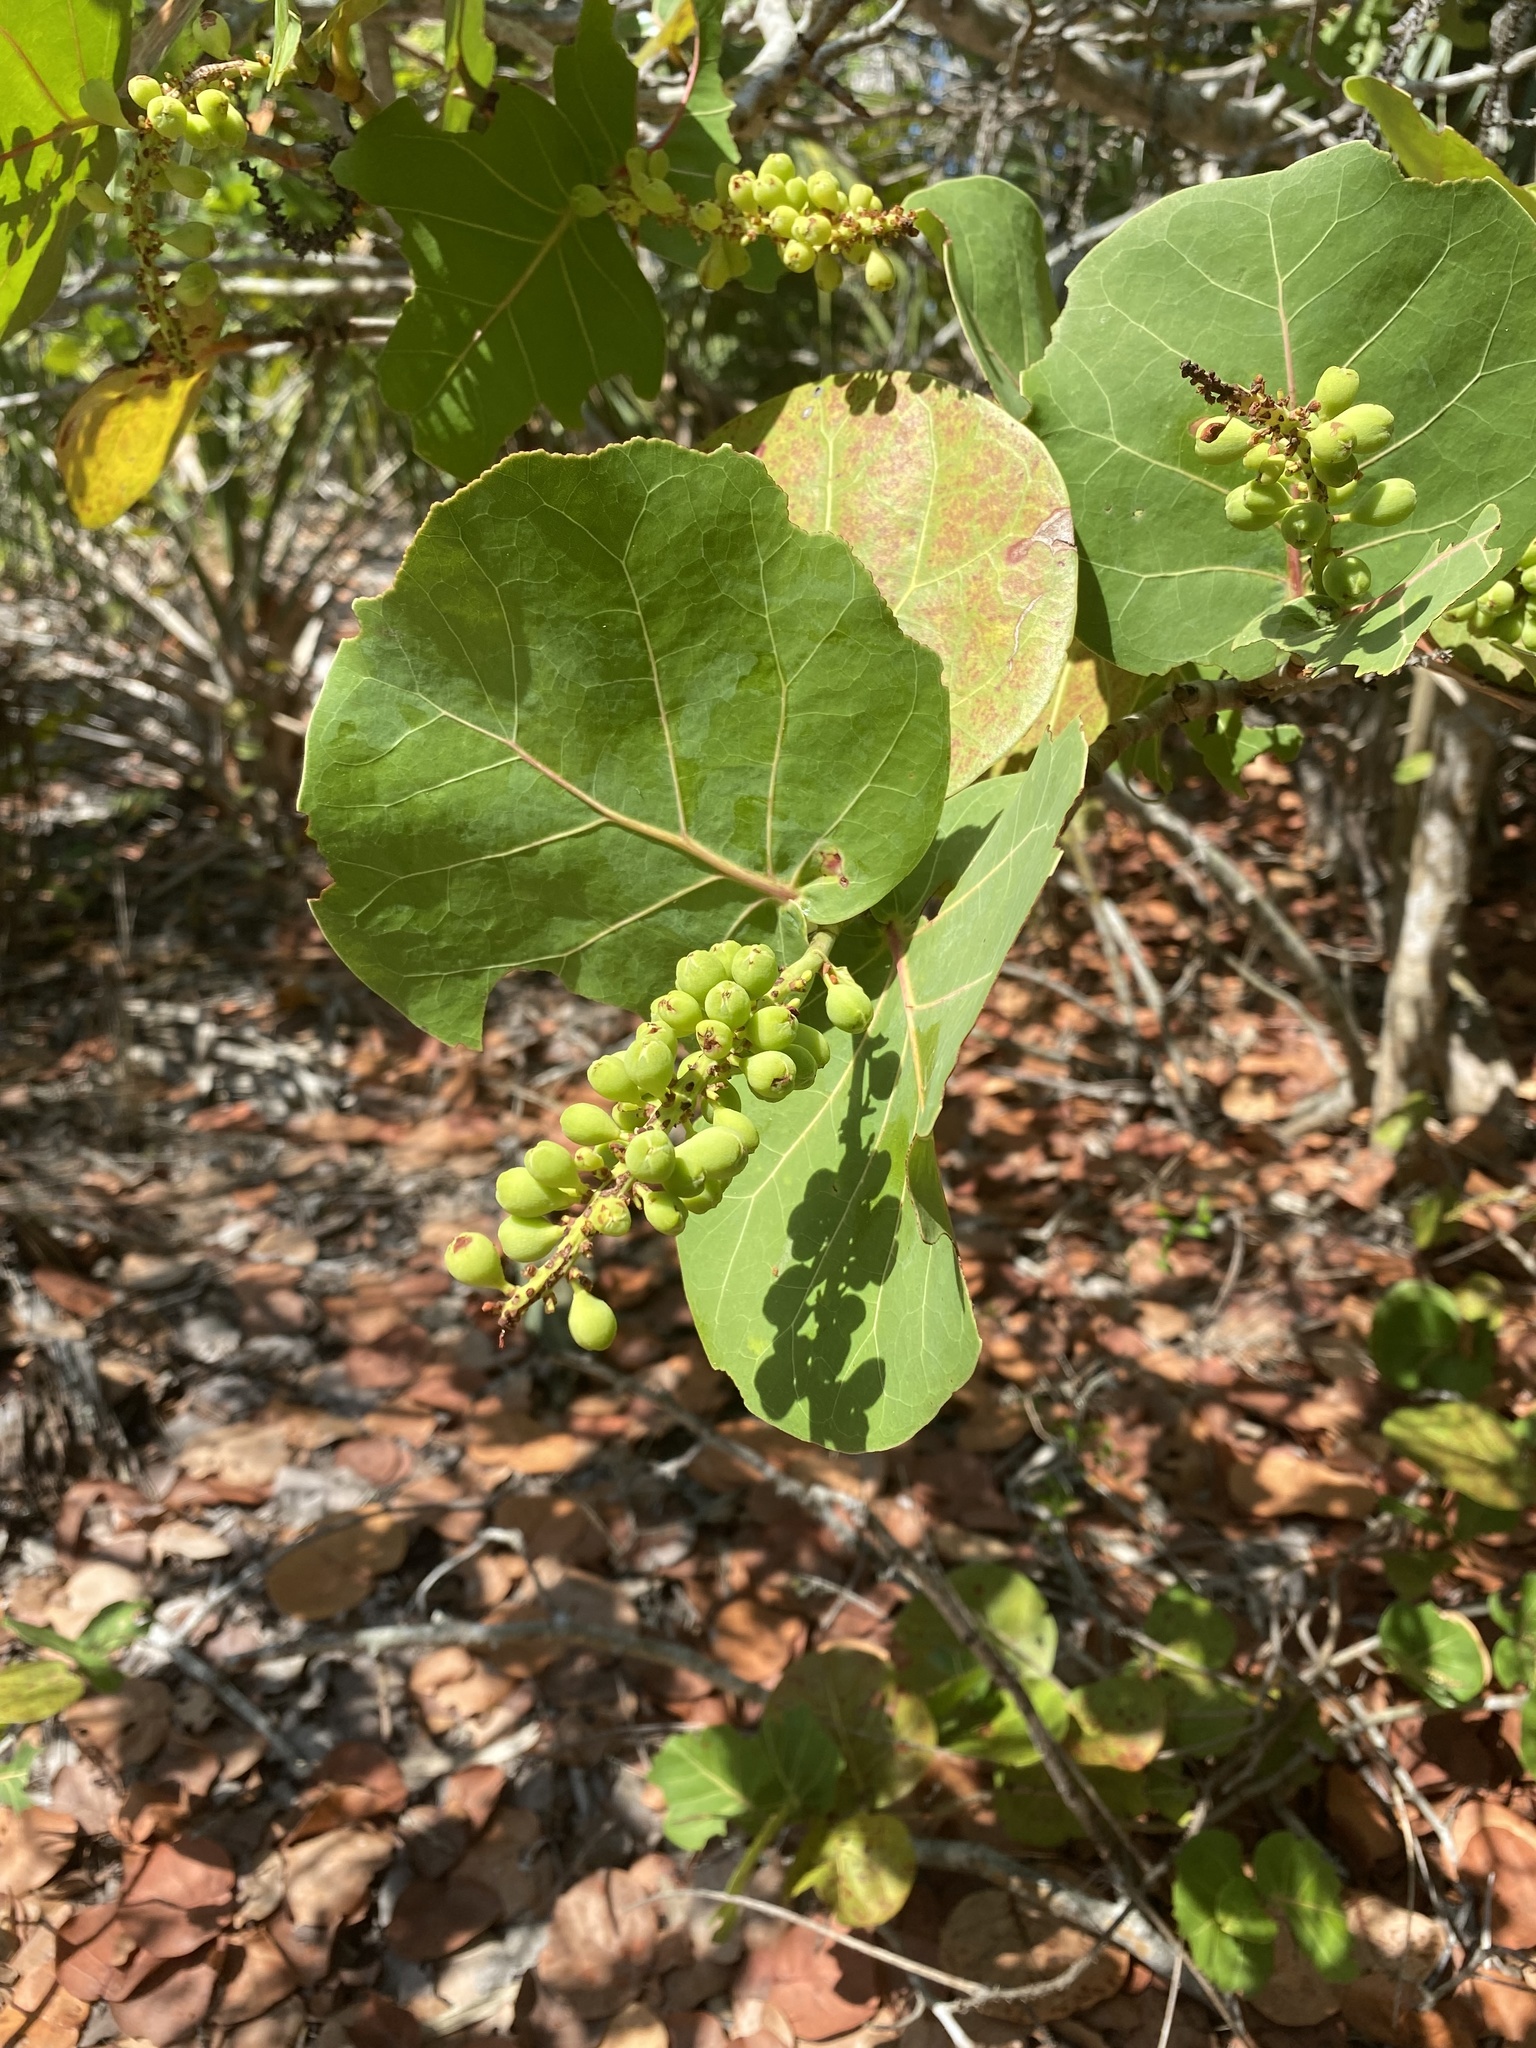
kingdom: Plantae
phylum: Tracheophyta
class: Magnoliopsida
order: Caryophyllales
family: Polygonaceae
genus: Coccoloba
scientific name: Coccoloba uvifera
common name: Seagrape
